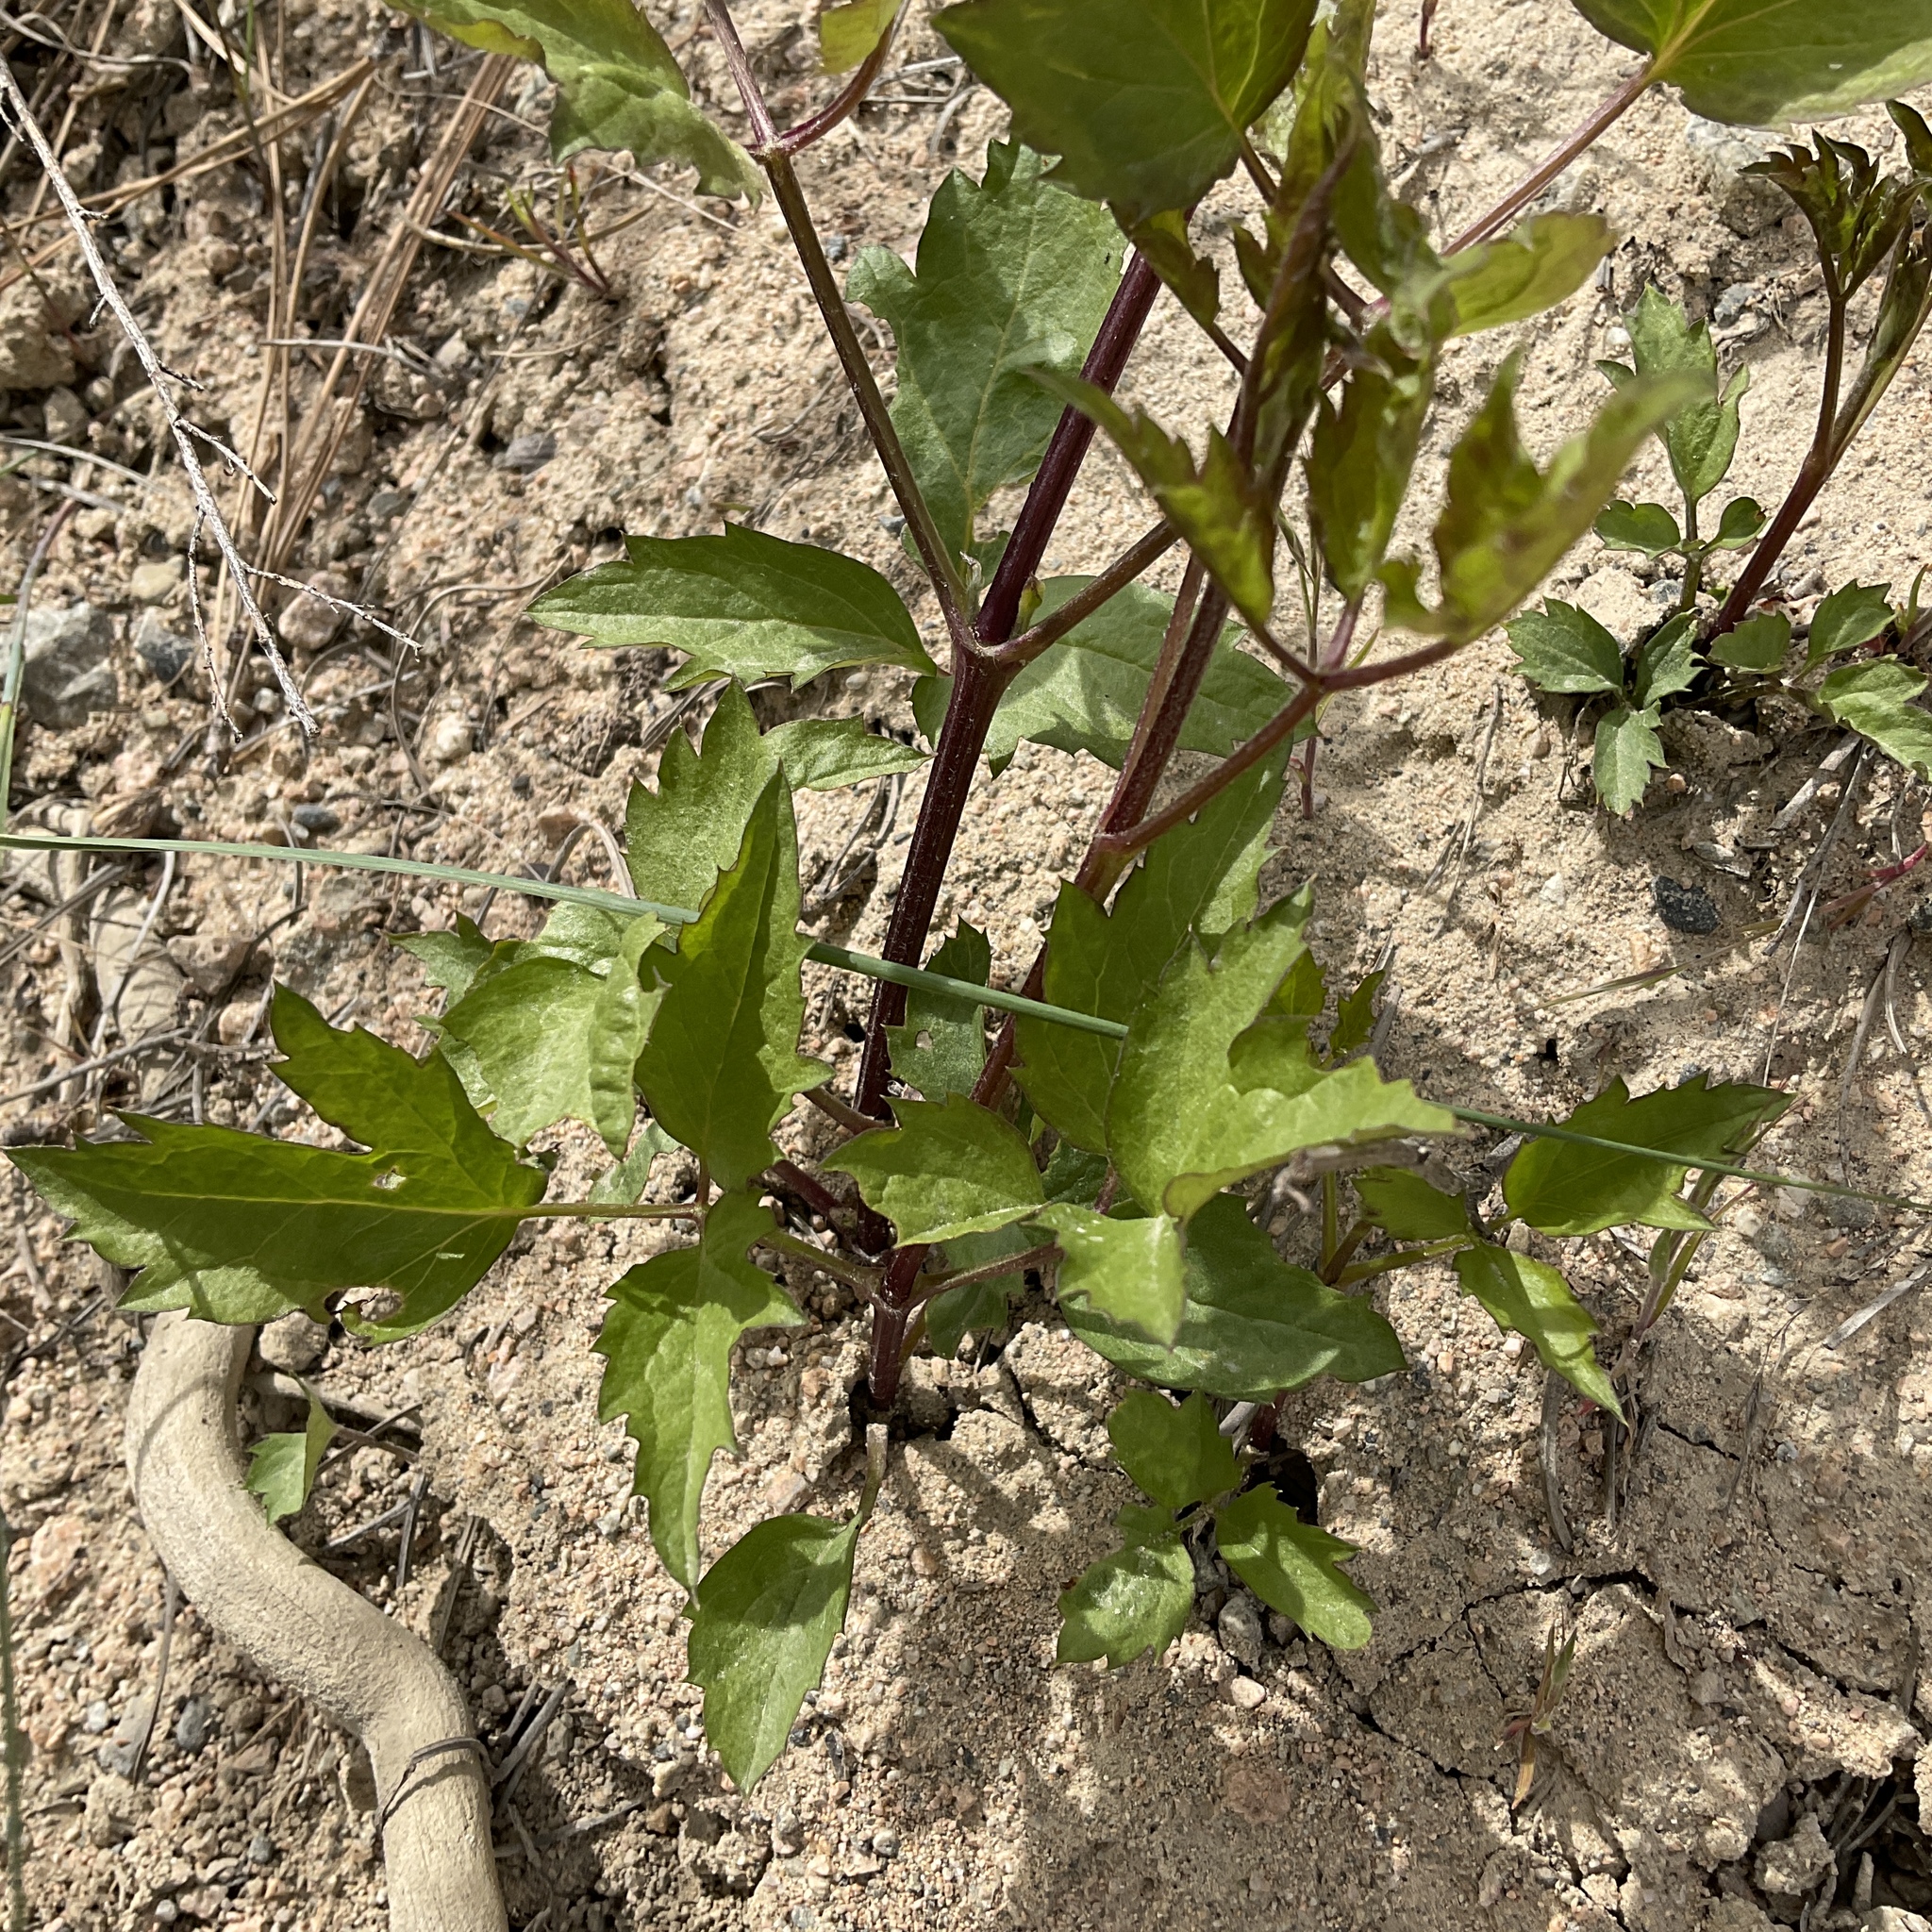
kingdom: Plantae
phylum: Tracheophyta
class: Magnoliopsida
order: Ranunculales
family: Ranunculaceae
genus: Clematis
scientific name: Clematis ligusticifolia
